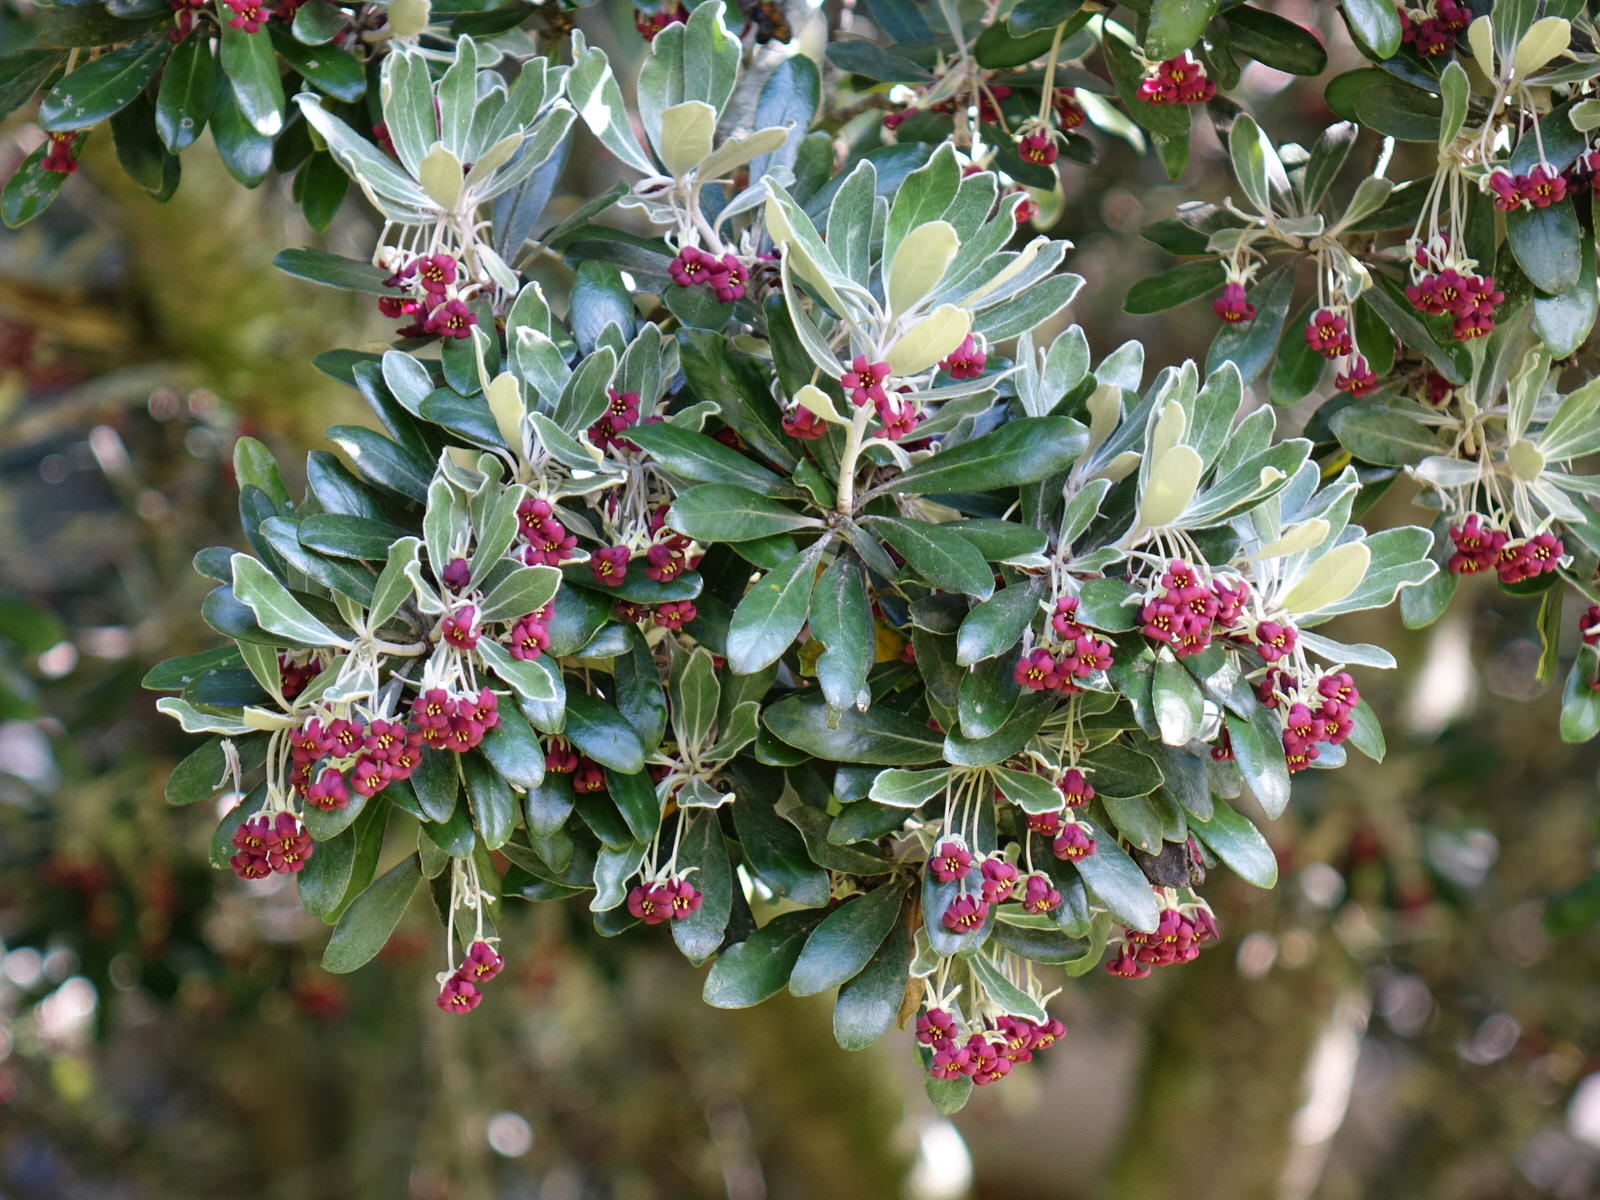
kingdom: Plantae
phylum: Tracheophyta
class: Magnoliopsida
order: Apiales
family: Pittosporaceae
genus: Pittosporum
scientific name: Pittosporum crassifolium
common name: Karo
